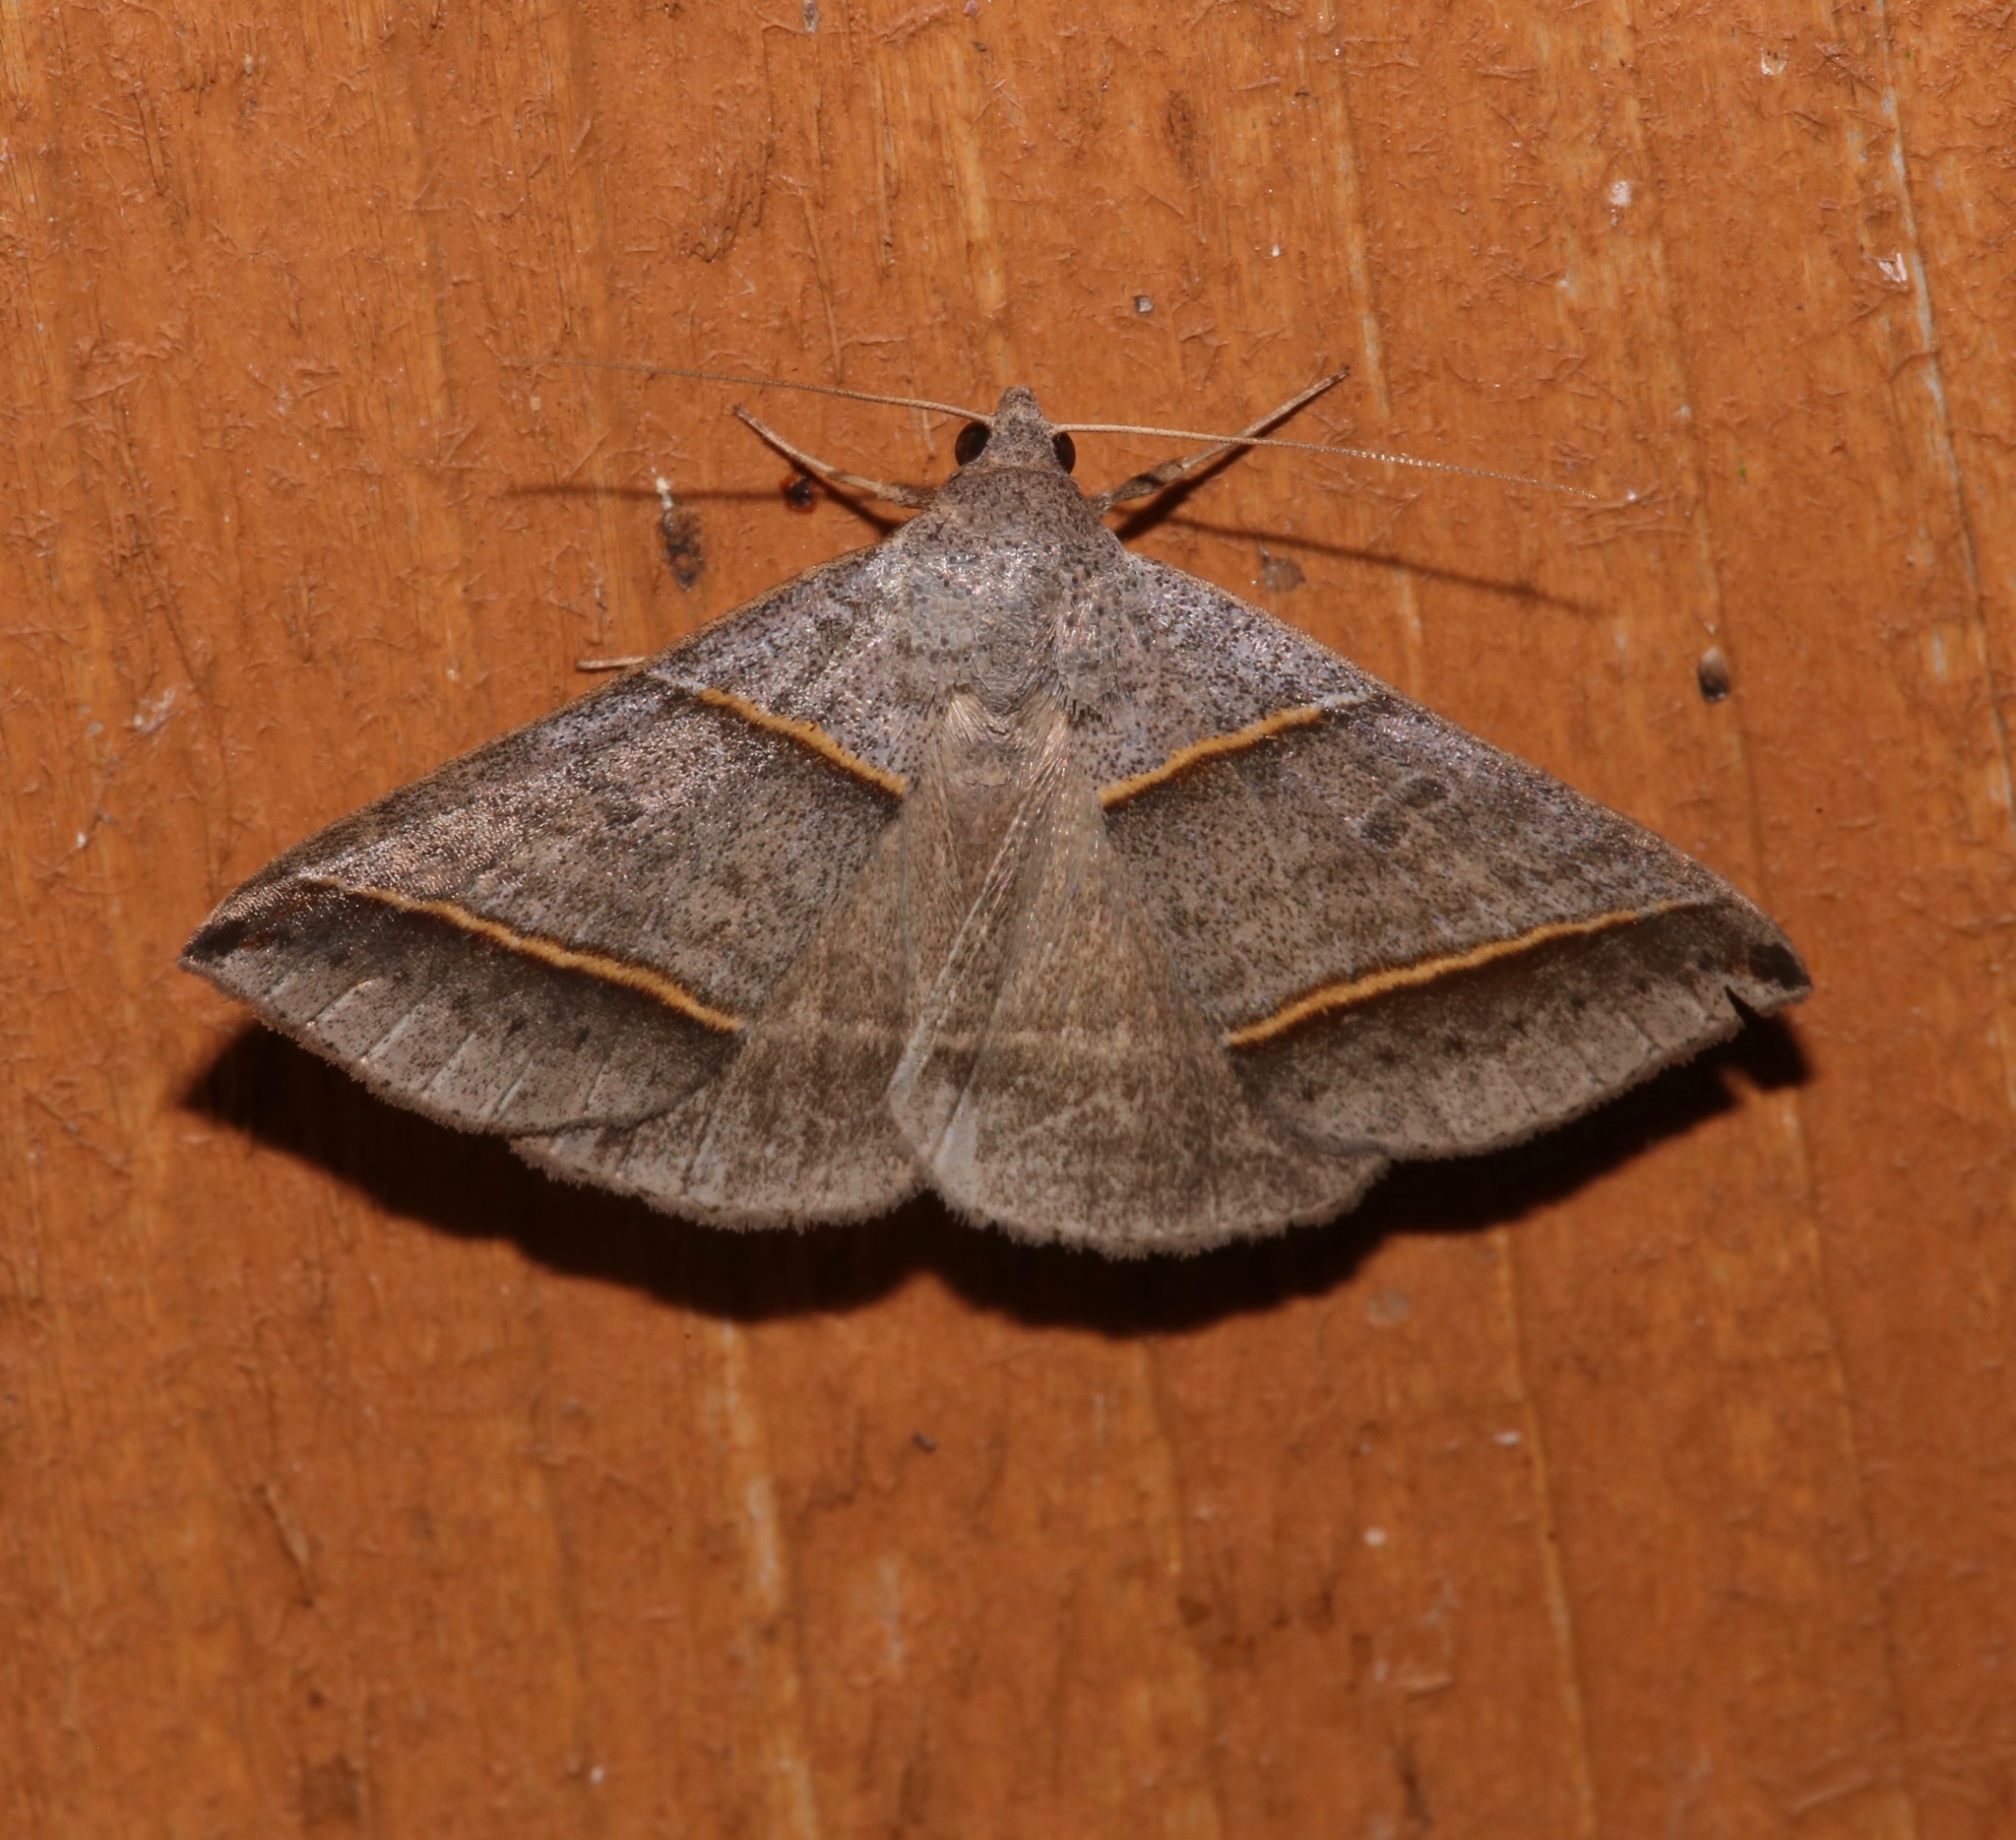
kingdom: Animalia
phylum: Arthropoda
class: Insecta
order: Lepidoptera
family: Erebidae
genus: Ptichodis
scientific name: Ptichodis vinculum
